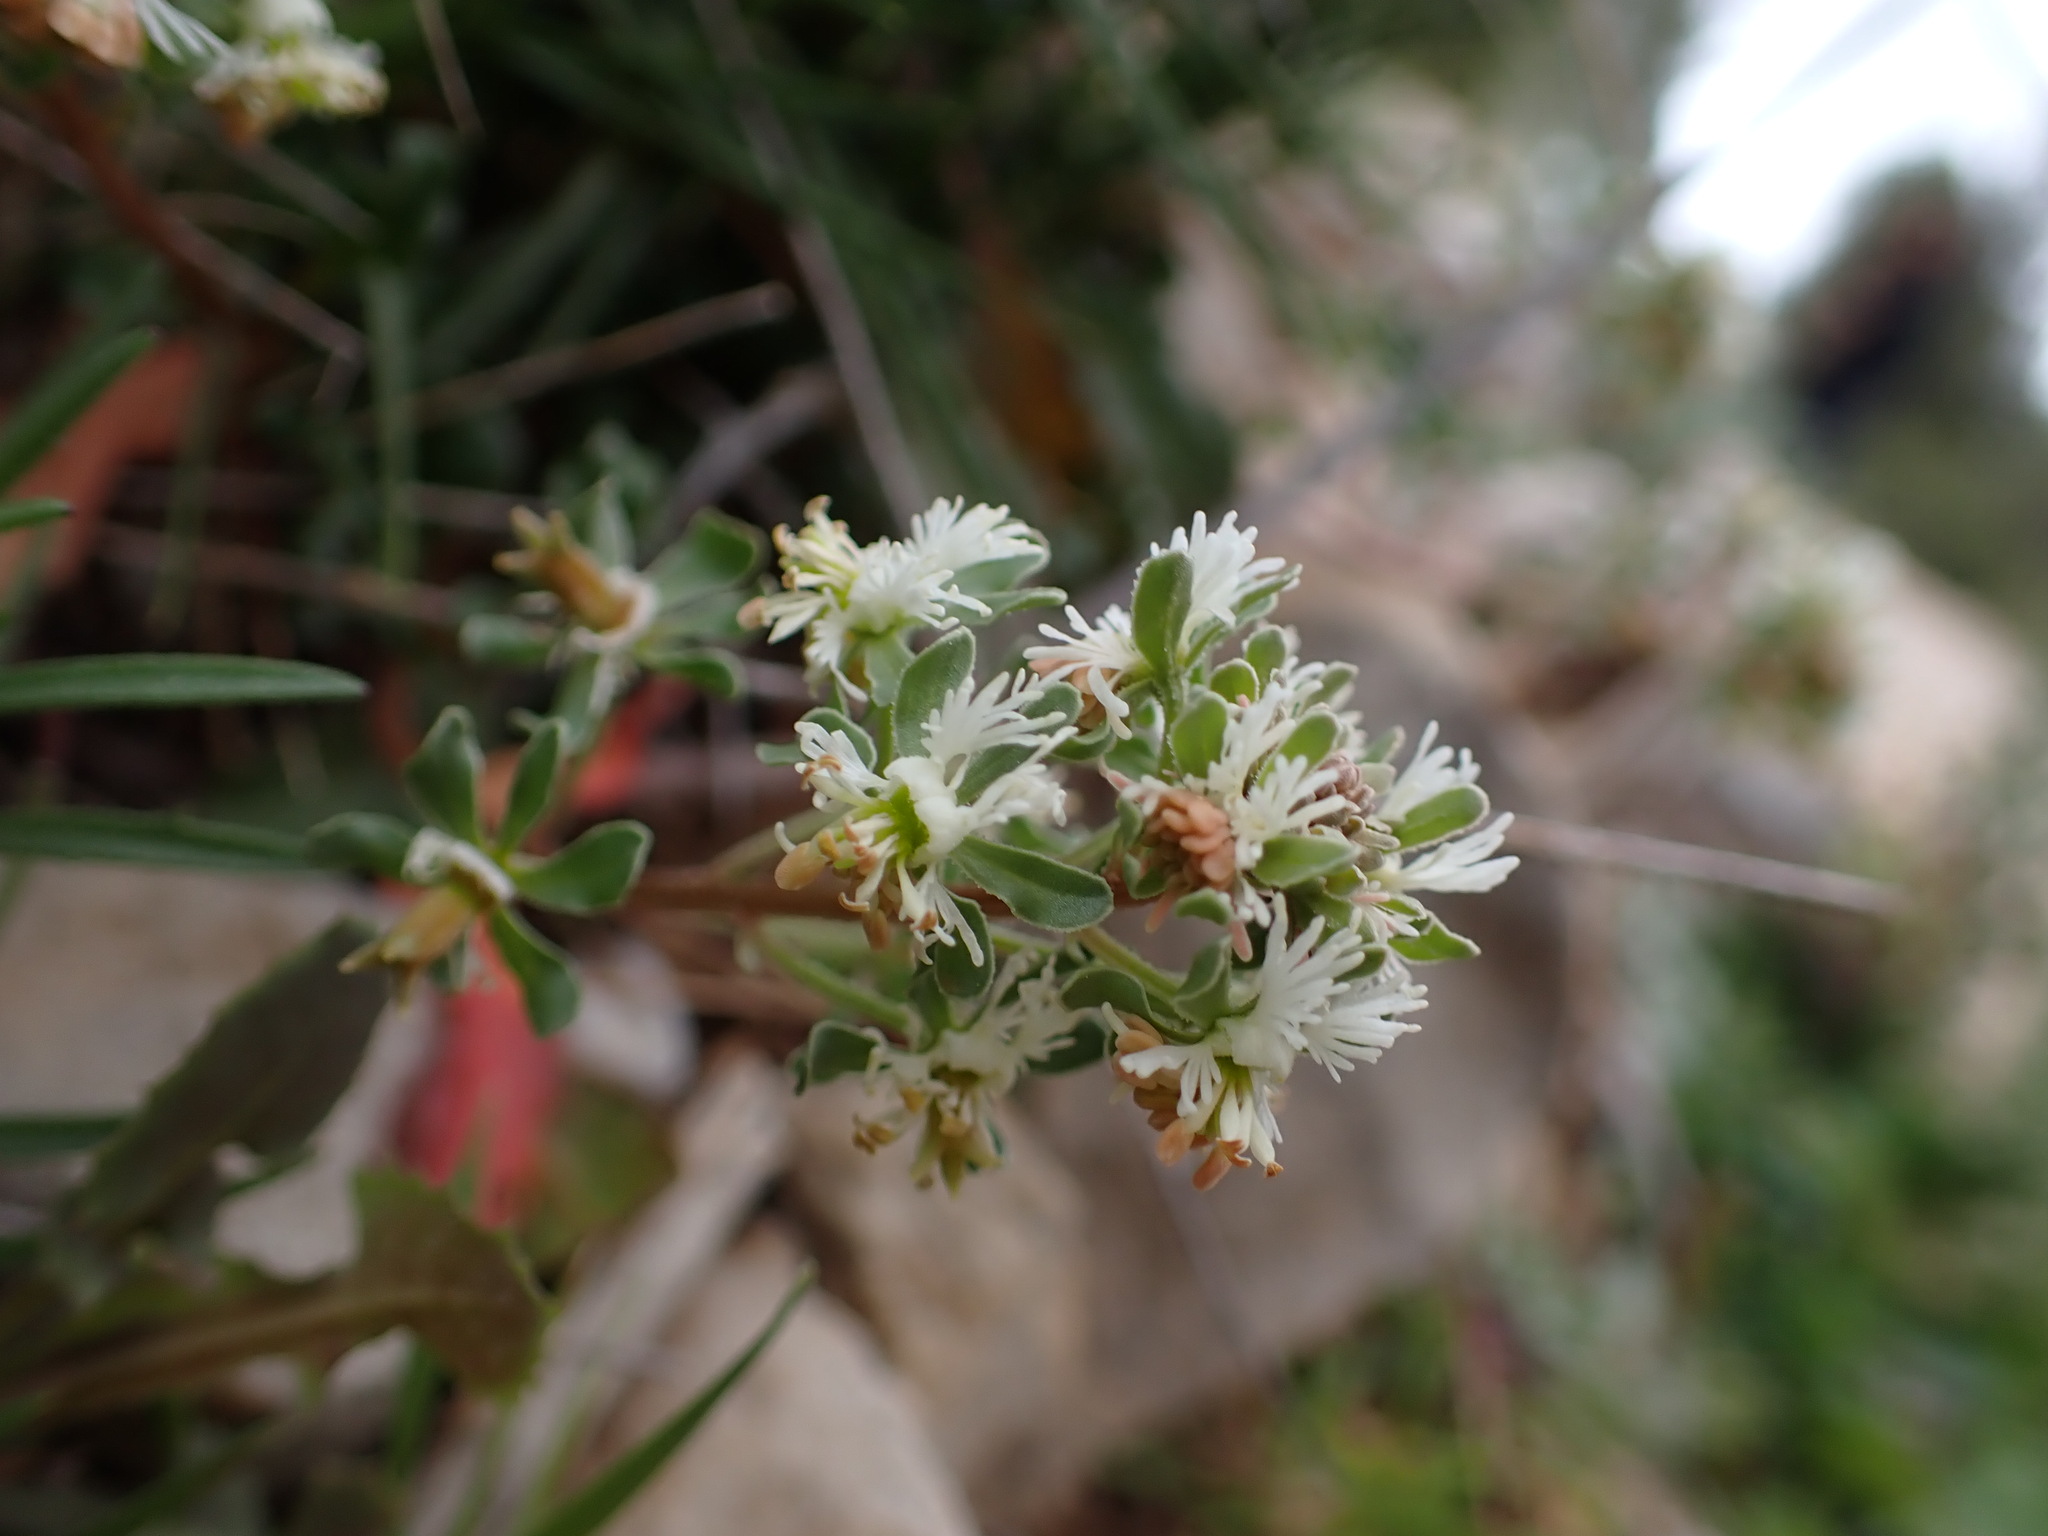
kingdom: Plantae
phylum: Tracheophyta
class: Magnoliopsida
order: Brassicales
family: Resedaceae
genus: Reseda
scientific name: Reseda phyteuma
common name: Corn mignonette
